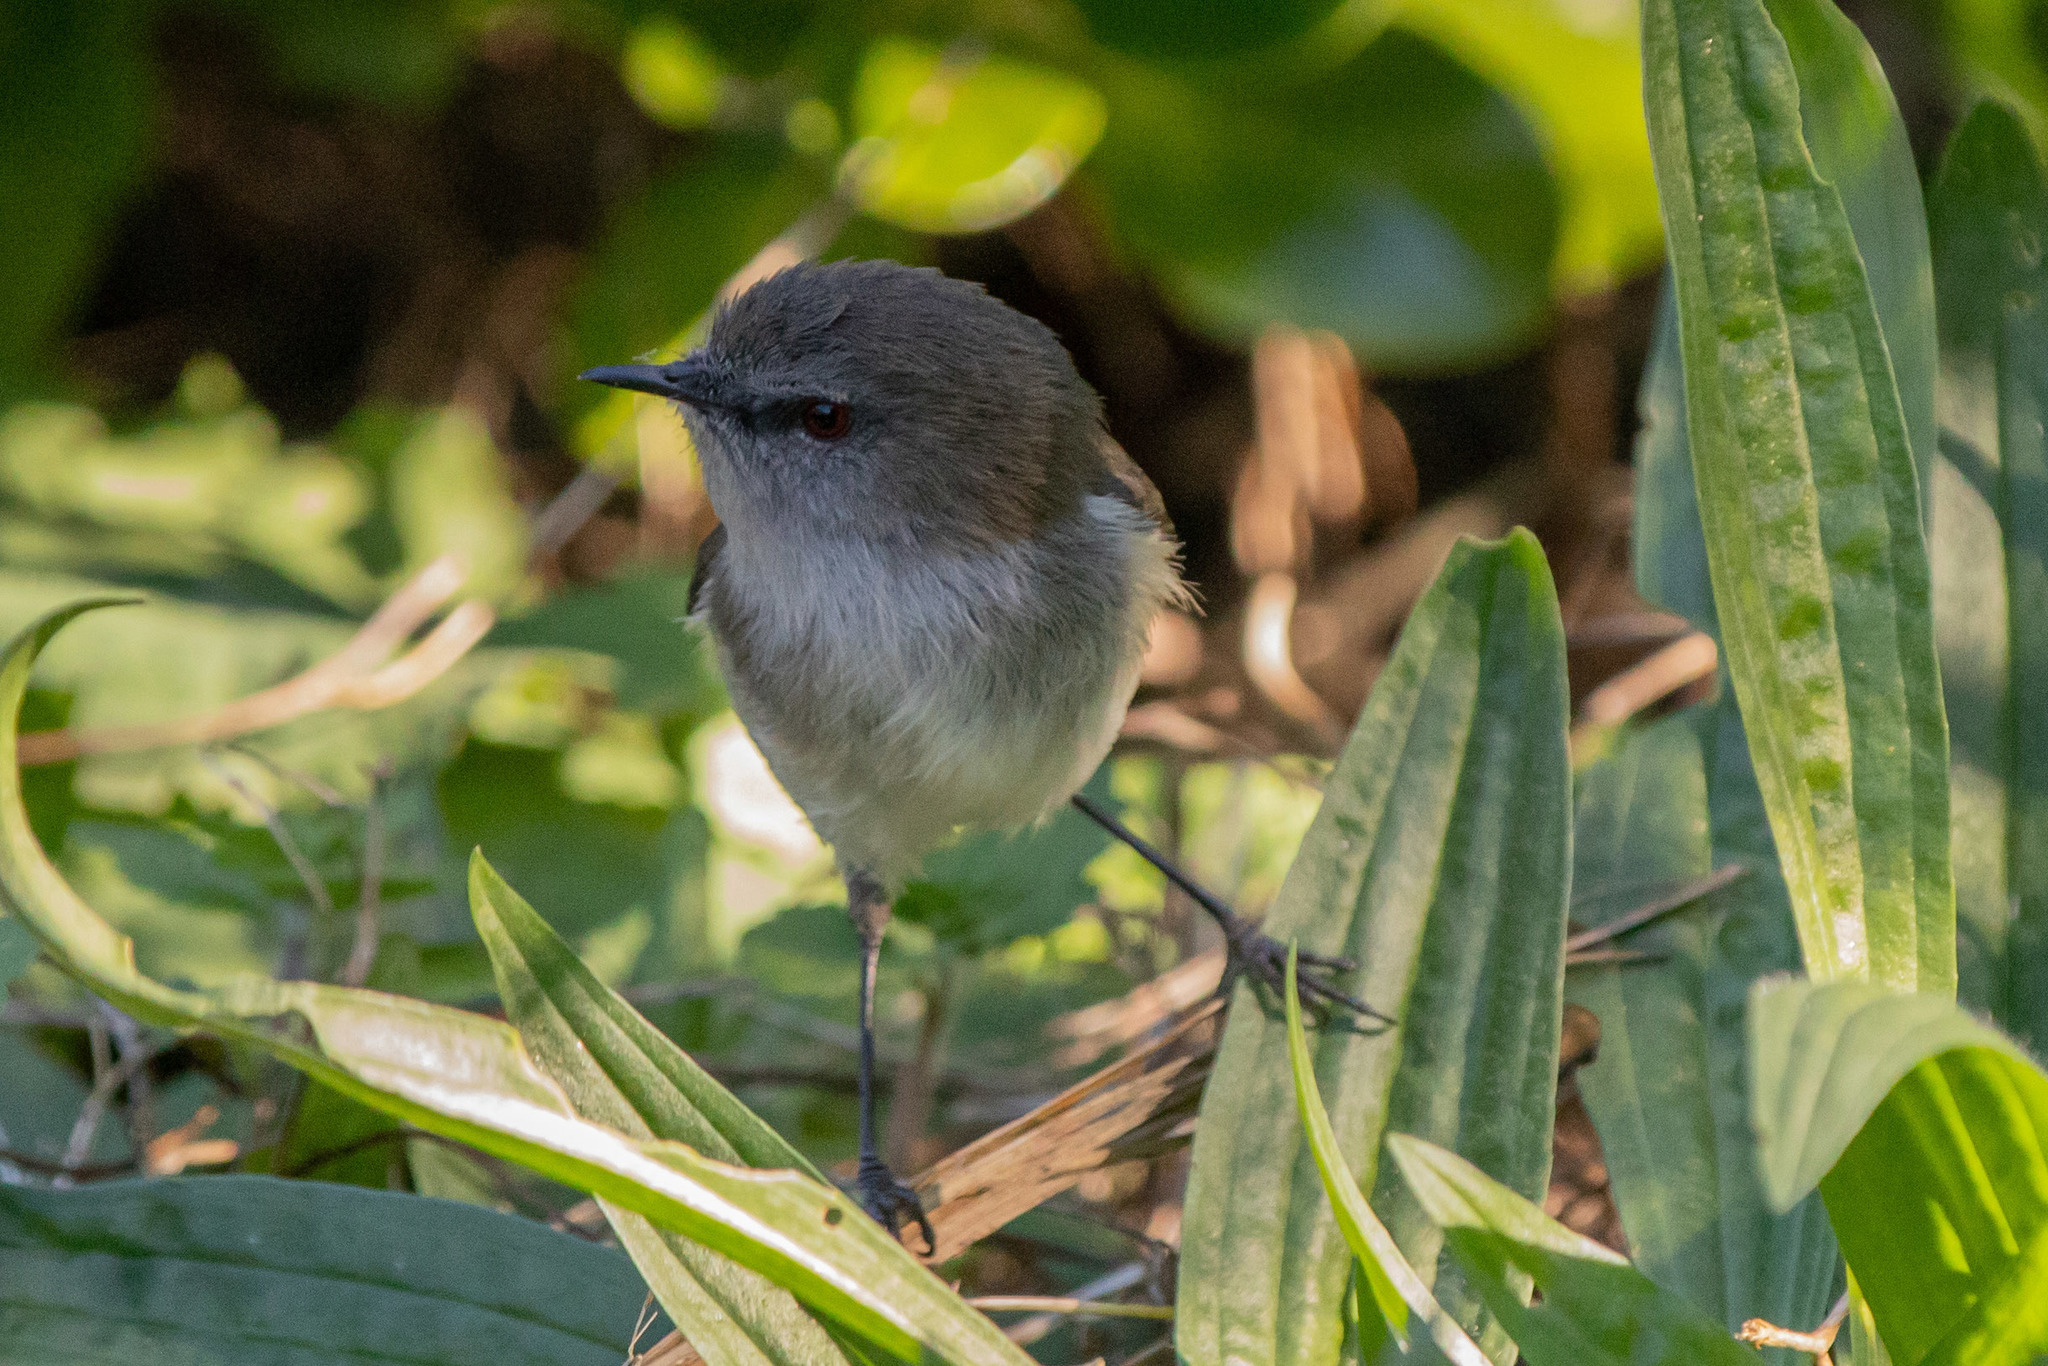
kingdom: Animalia
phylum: Chordata
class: Aves
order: Passeriformes
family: Acanthizidae
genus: Gerygone
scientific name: Gerygone igata
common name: Grey gerygone
